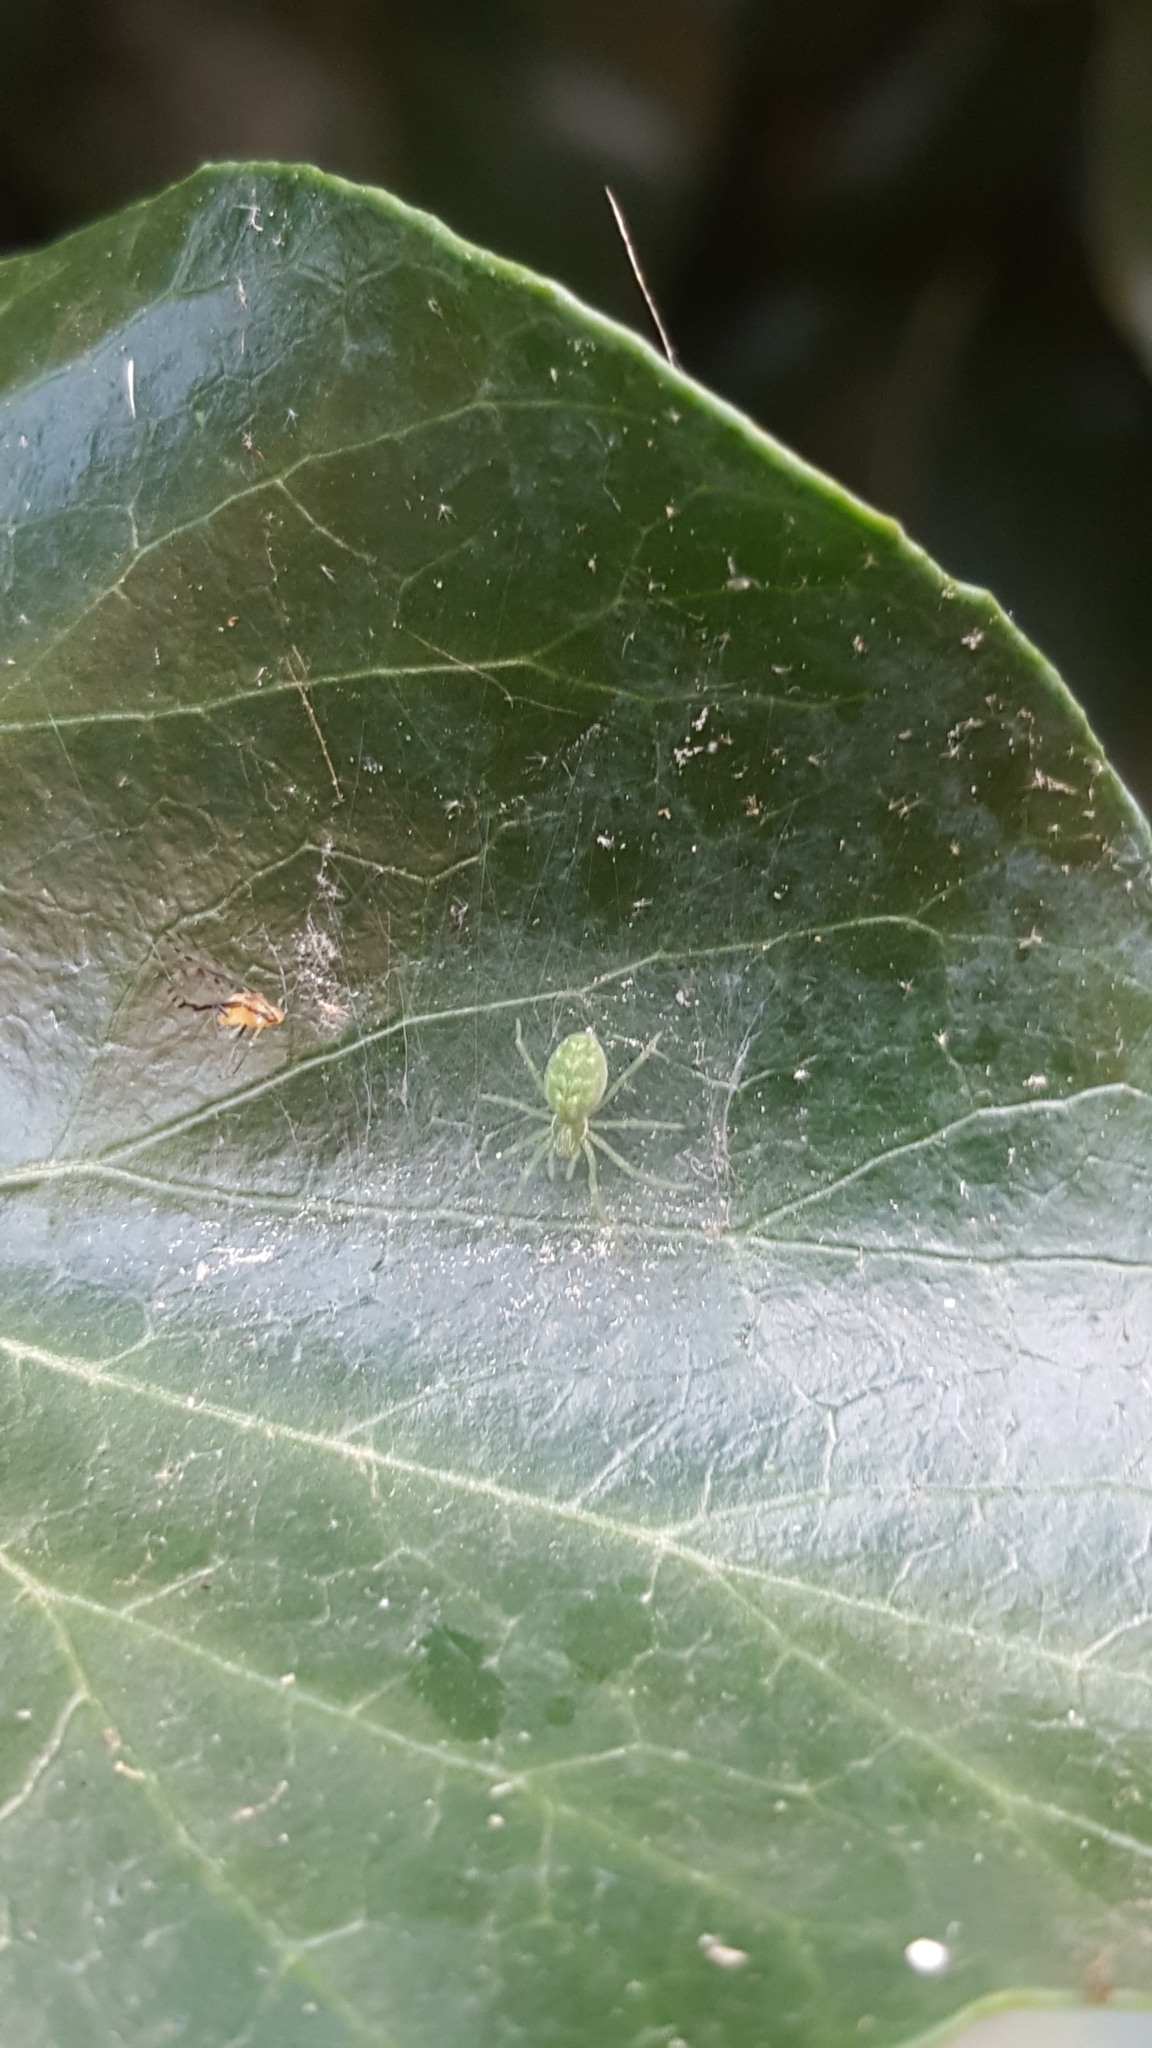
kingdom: Animalia
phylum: Arthropoda
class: Arachnida
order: Araneae
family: Dictynidae
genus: Nigma
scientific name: Nigma walckenaeri
